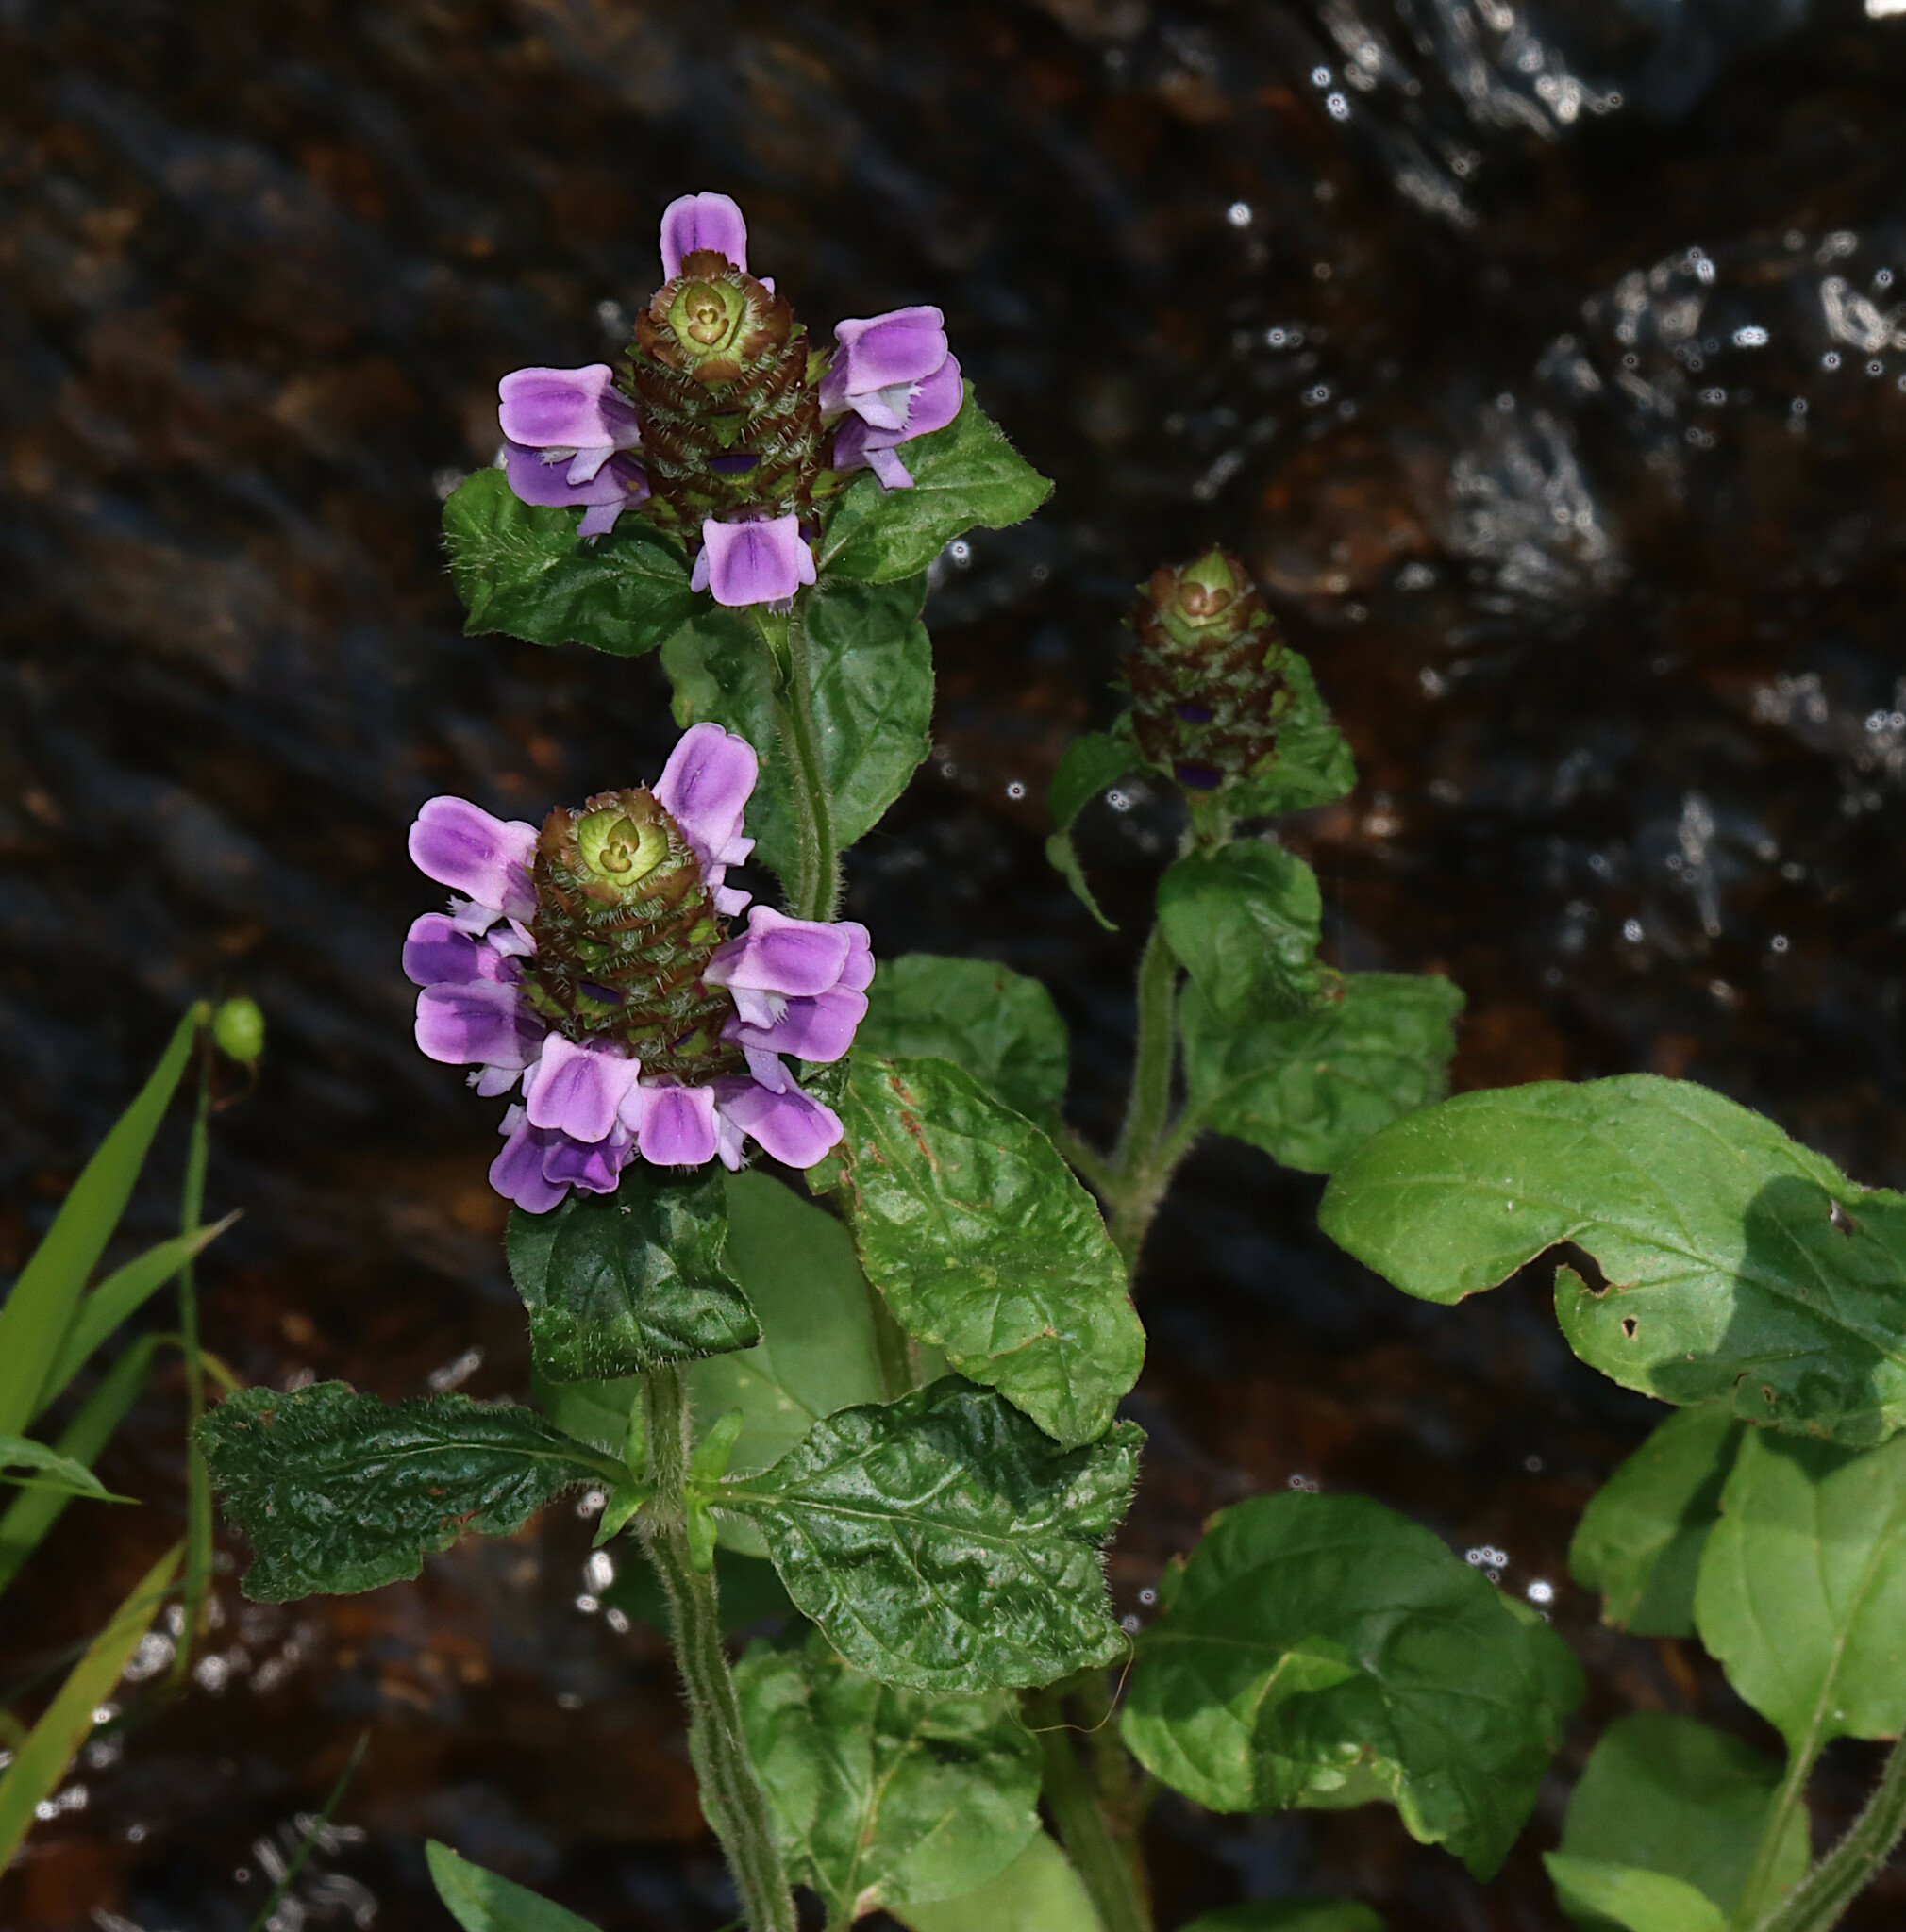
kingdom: Plantae
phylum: Tracheophyta
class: Magnoliopsida
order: Lamiales
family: Lamiaceae
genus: Prunella
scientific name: Prunella vulgaris
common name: Heal-all
